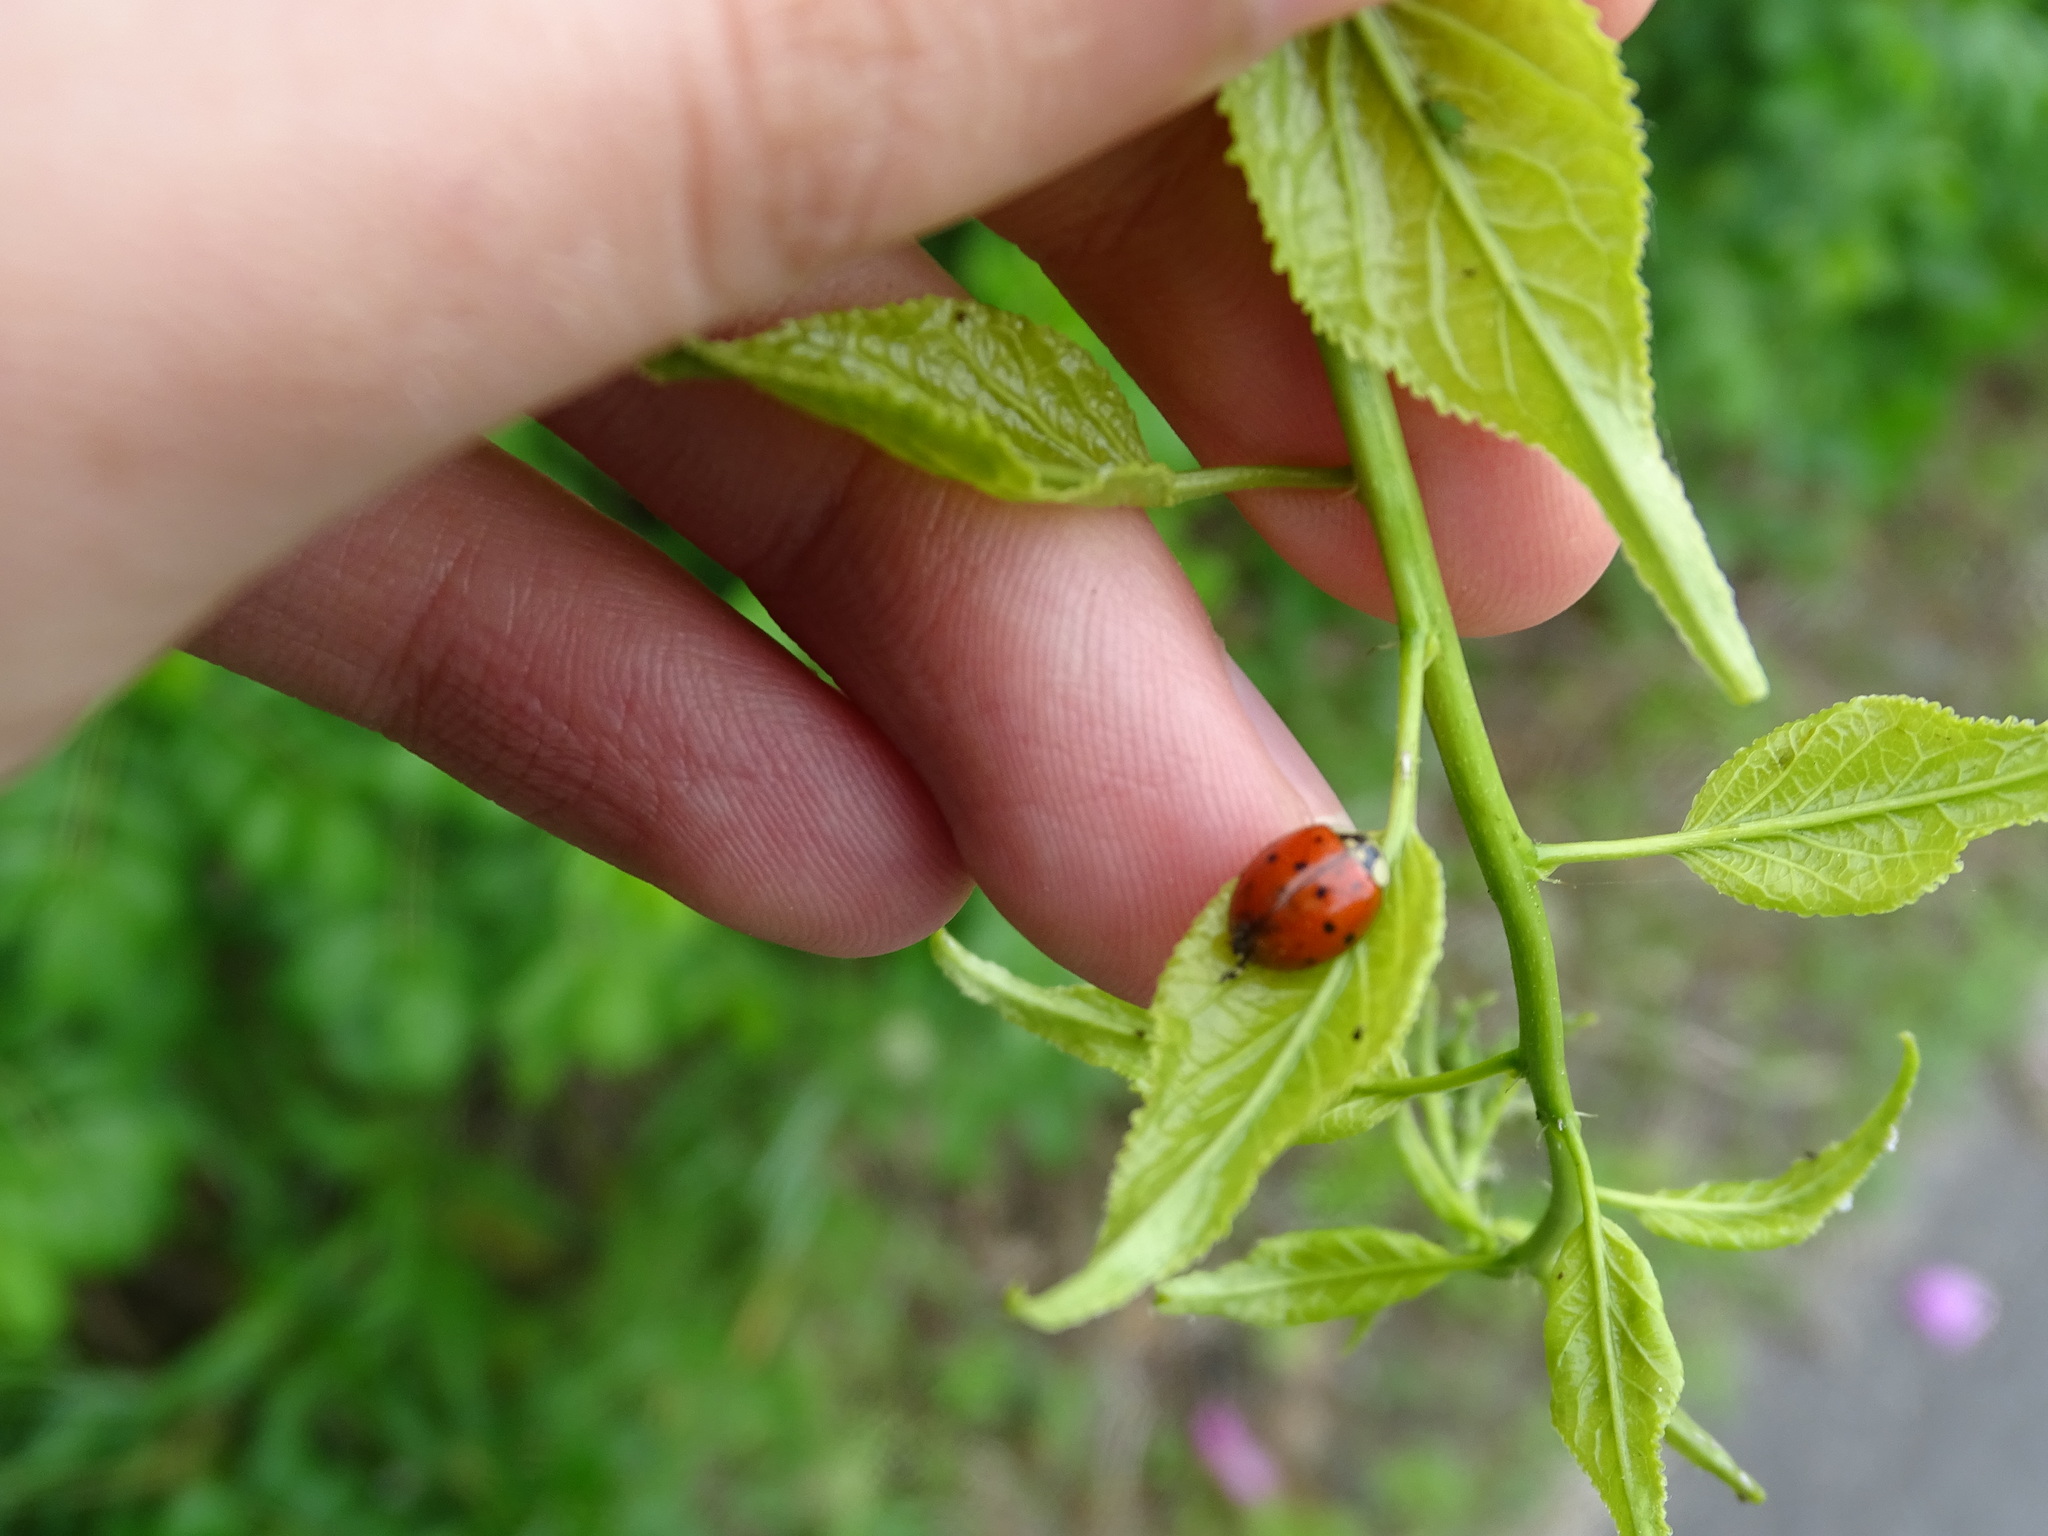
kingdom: Animalia
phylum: Arthropoda
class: Insecta
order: Coleoptera
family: Coccinellidae
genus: Harmonia
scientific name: Harmonia axyridis
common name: Harlequin ladybird
